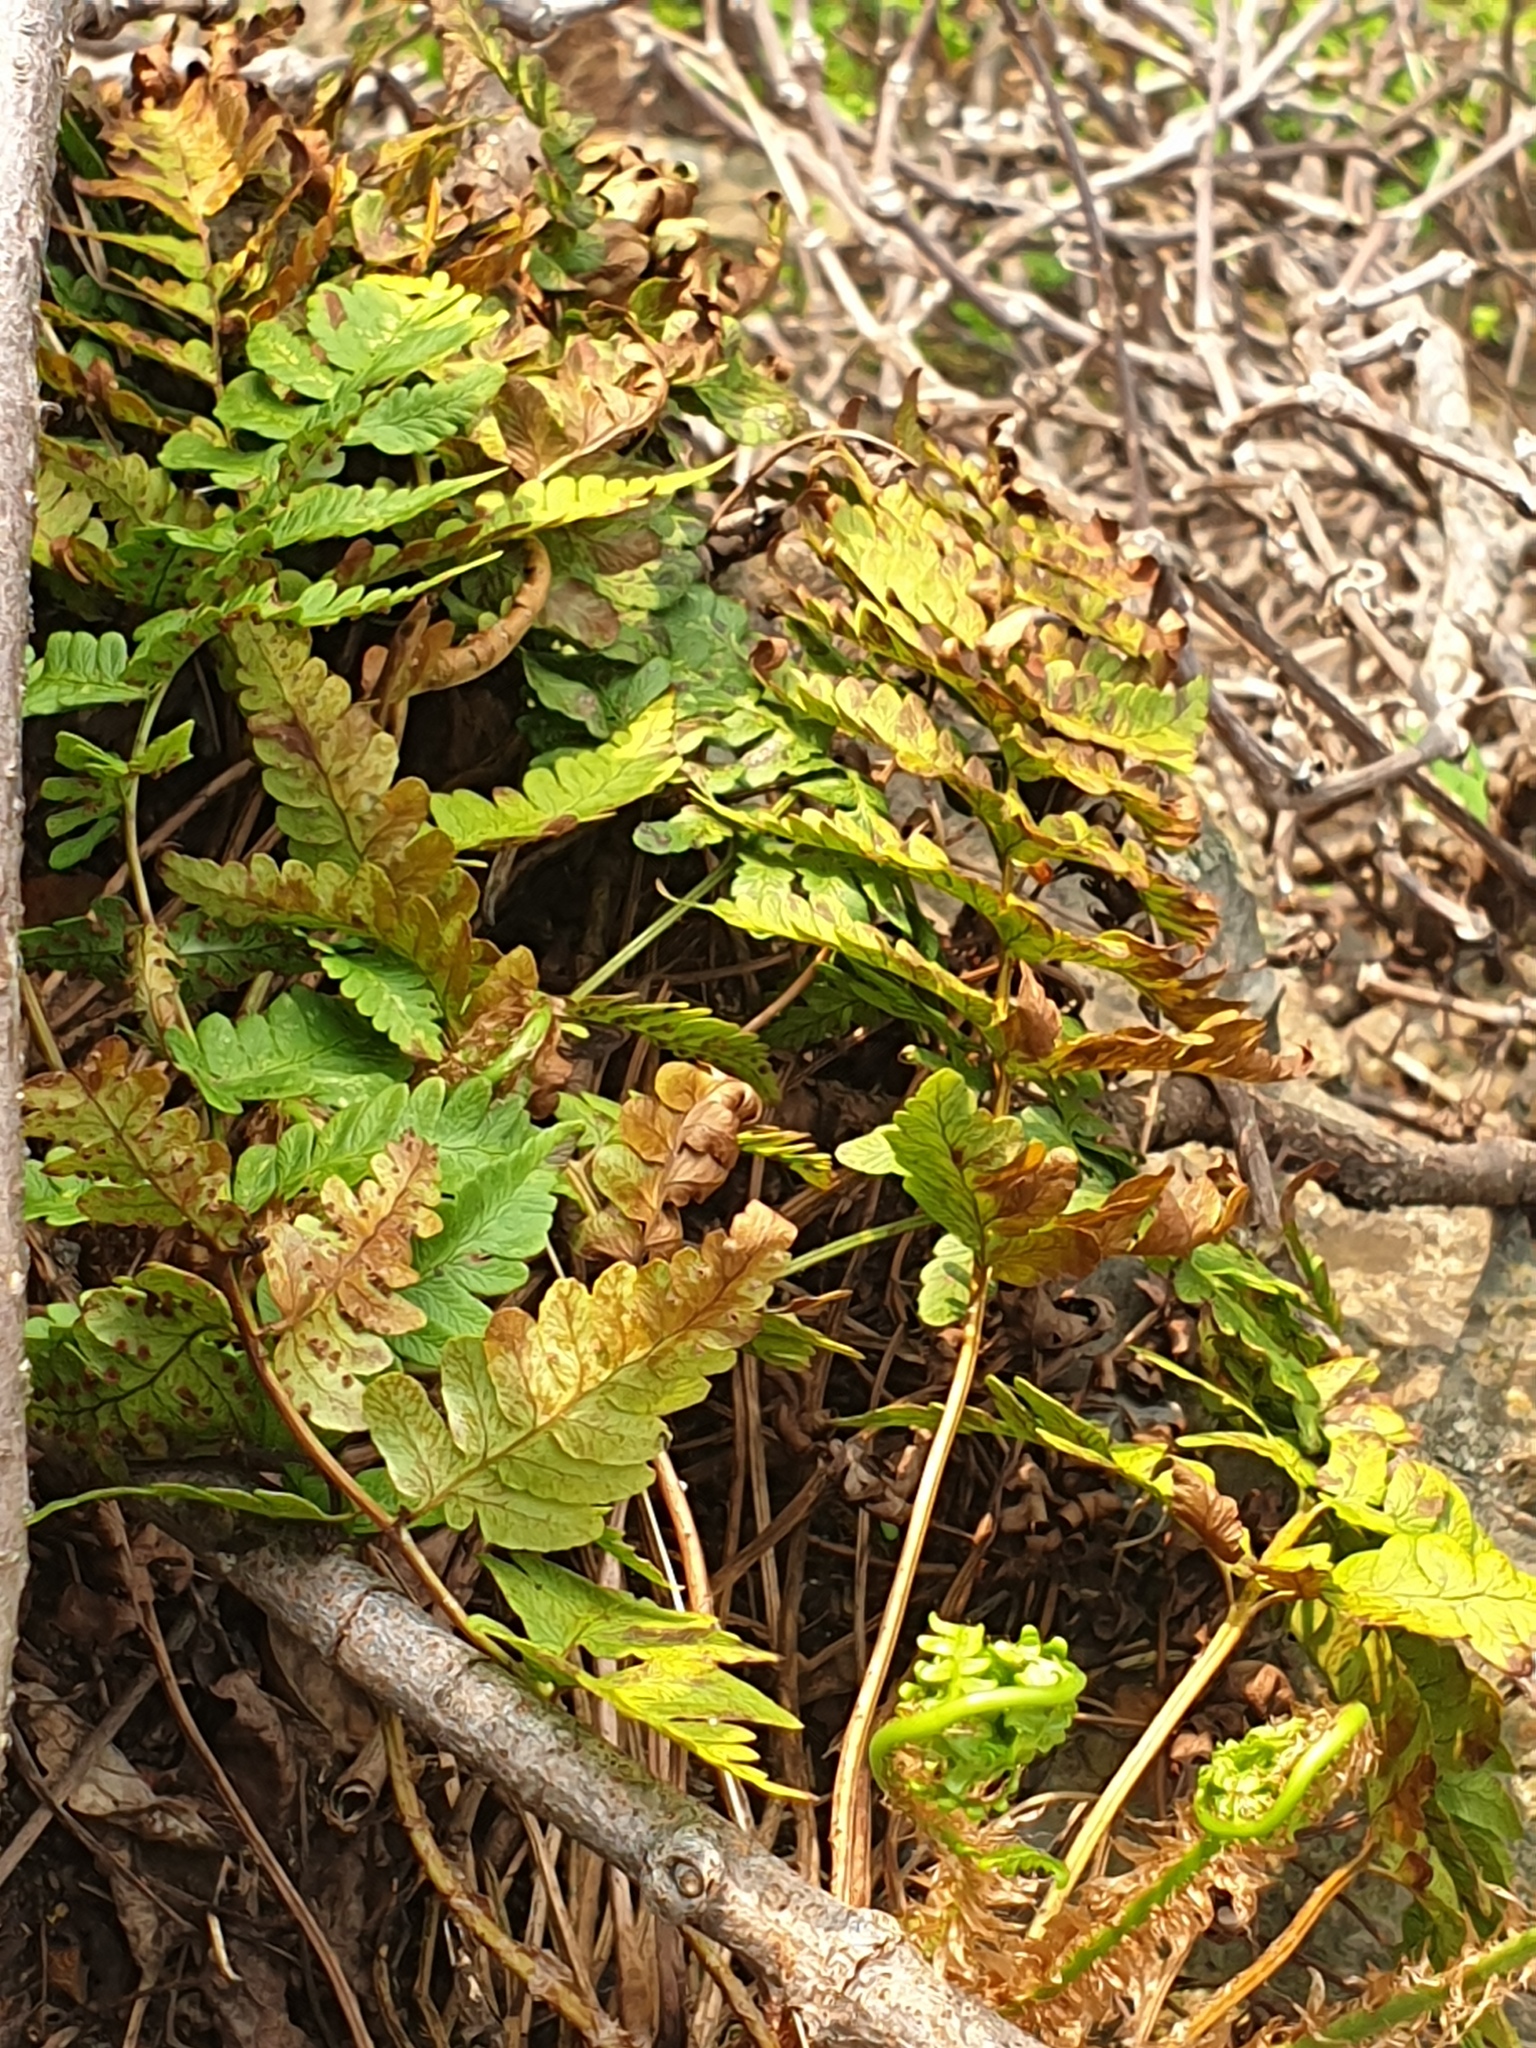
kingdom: Plantae
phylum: Tracheophyta
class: Polypodiopsida
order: Polypodiales
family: Dryopteridaceae
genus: Dryopteris
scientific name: Dryopteris marginalis
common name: Marginal wood fern
